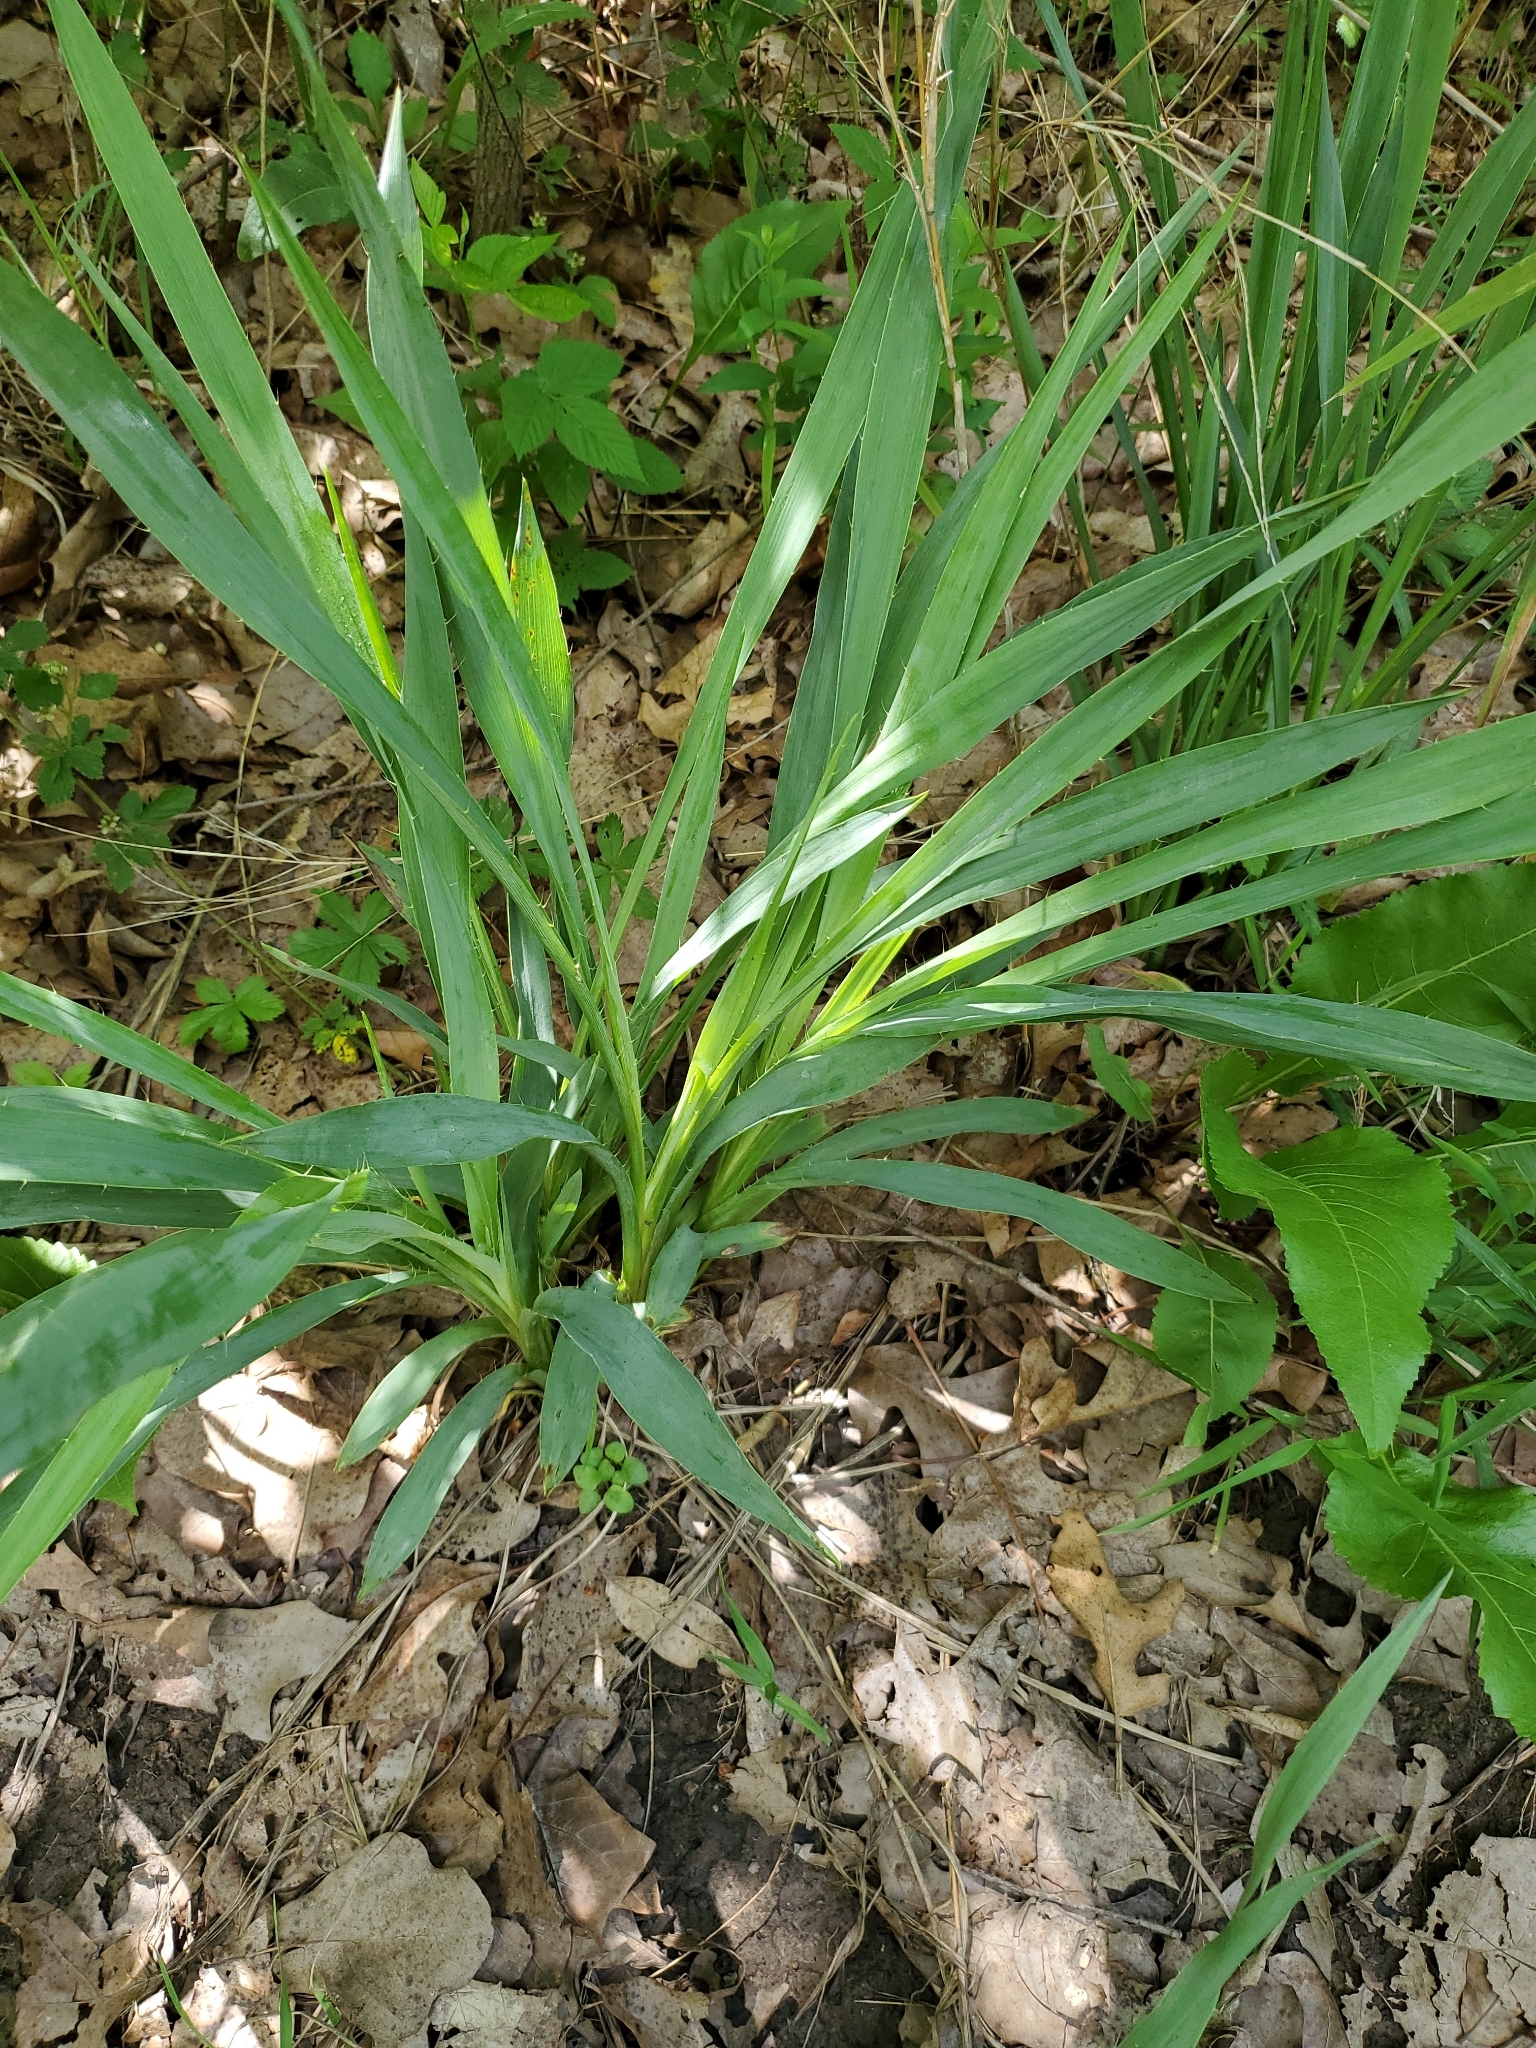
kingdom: Plantae
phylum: Tracheophyta
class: Magnoliopsida
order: Apiales
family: Apiaceae
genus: Eryngium
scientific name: Eryngium yuccifolium
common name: Button eryngo
